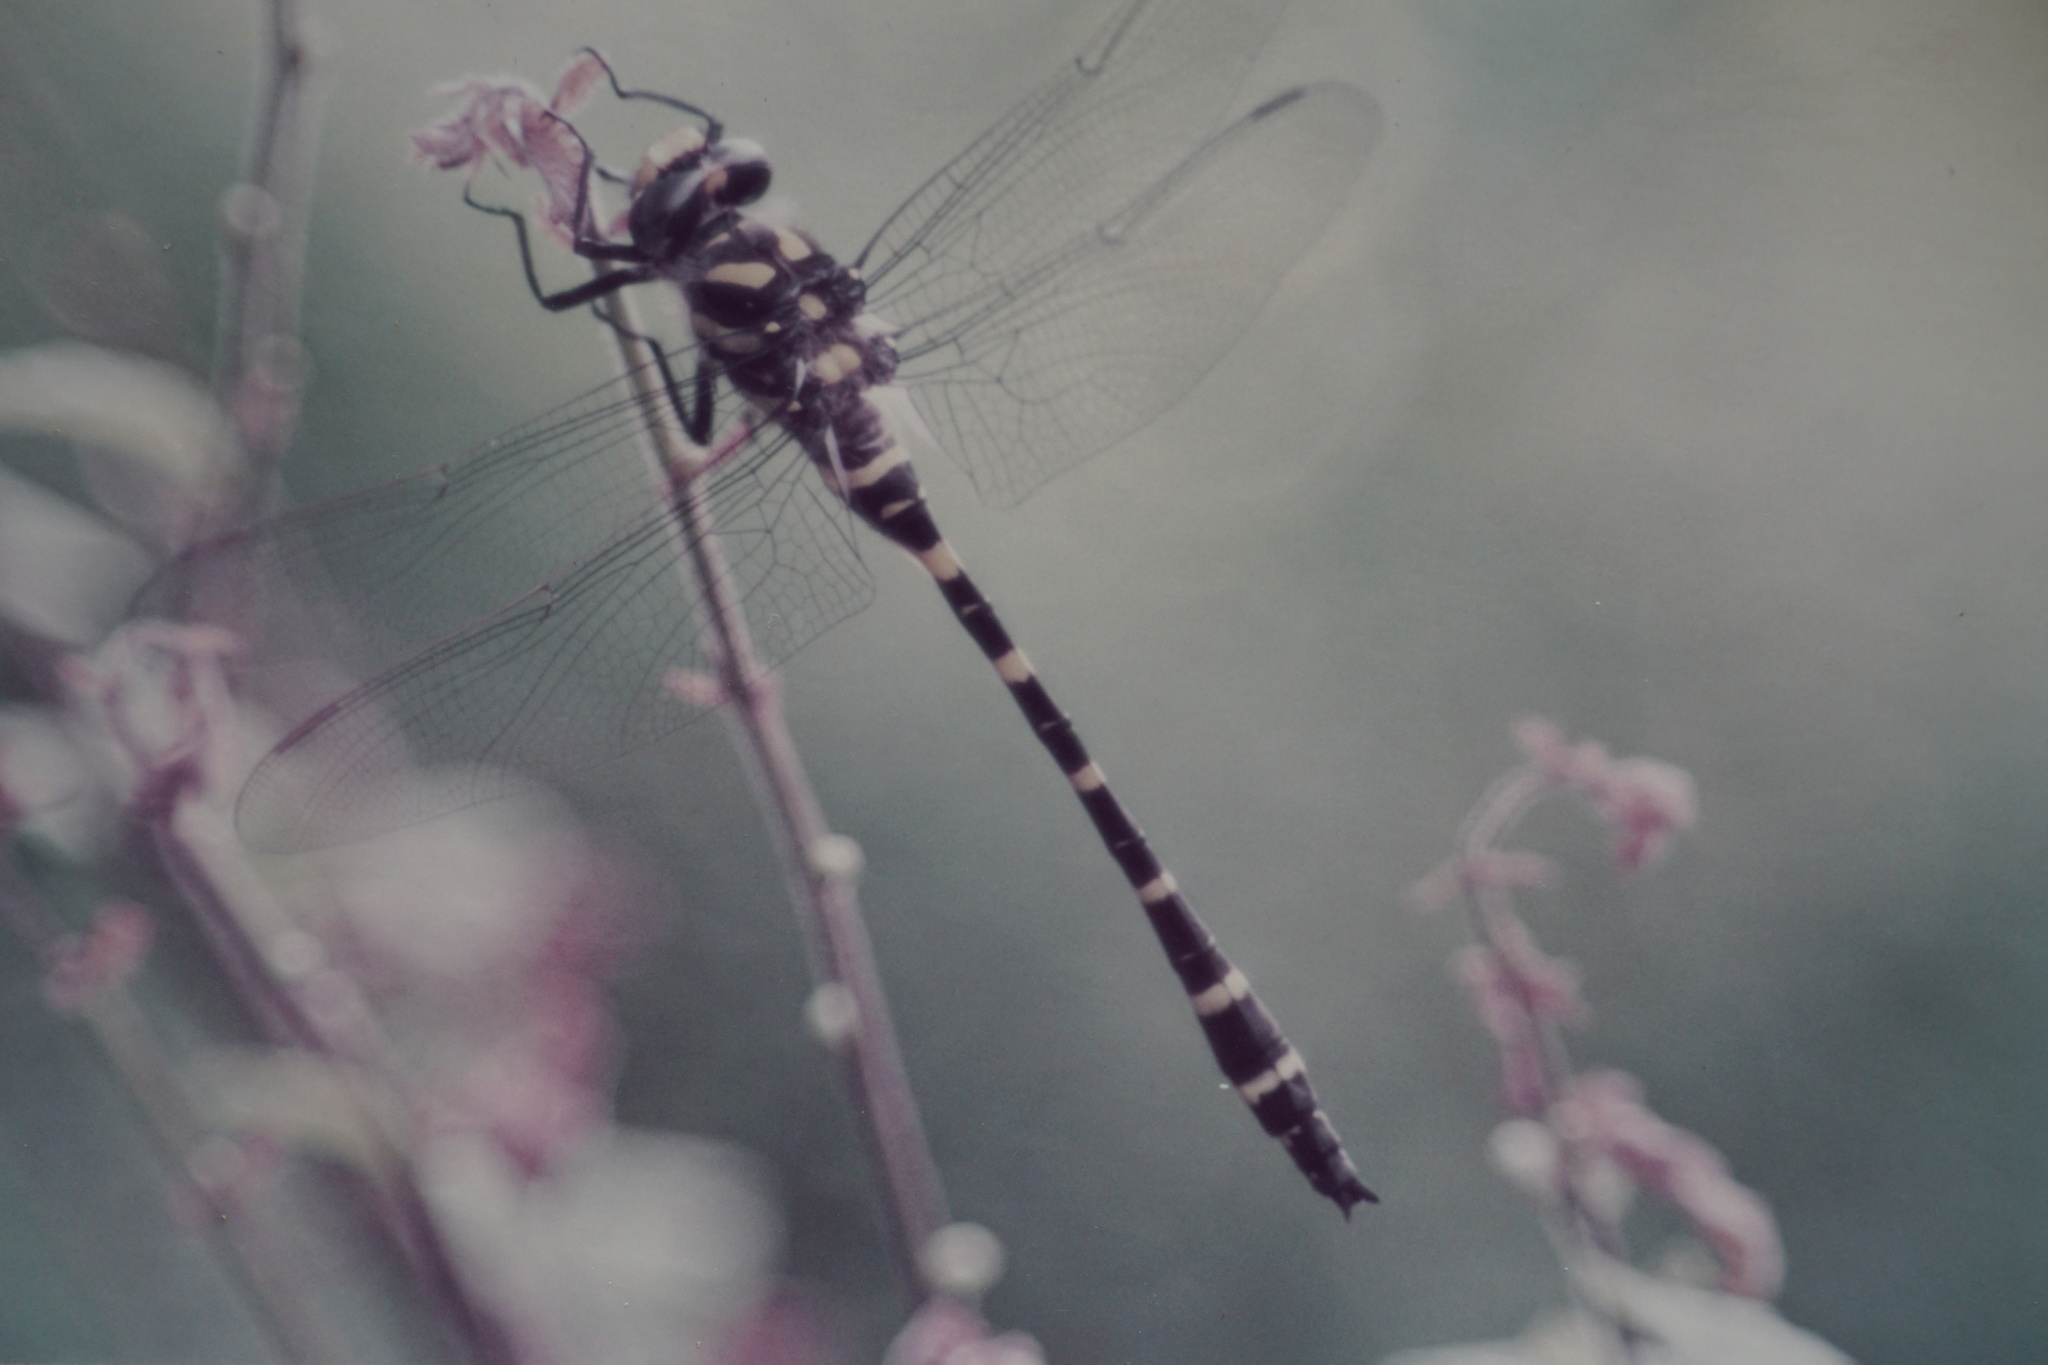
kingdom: Animalia
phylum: Arthropoda
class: Insecta
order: Odonata
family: Cordulegastridae
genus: Cordulegaster
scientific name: Cordulegaster boltonii
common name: Golden-ringed dragonfly
